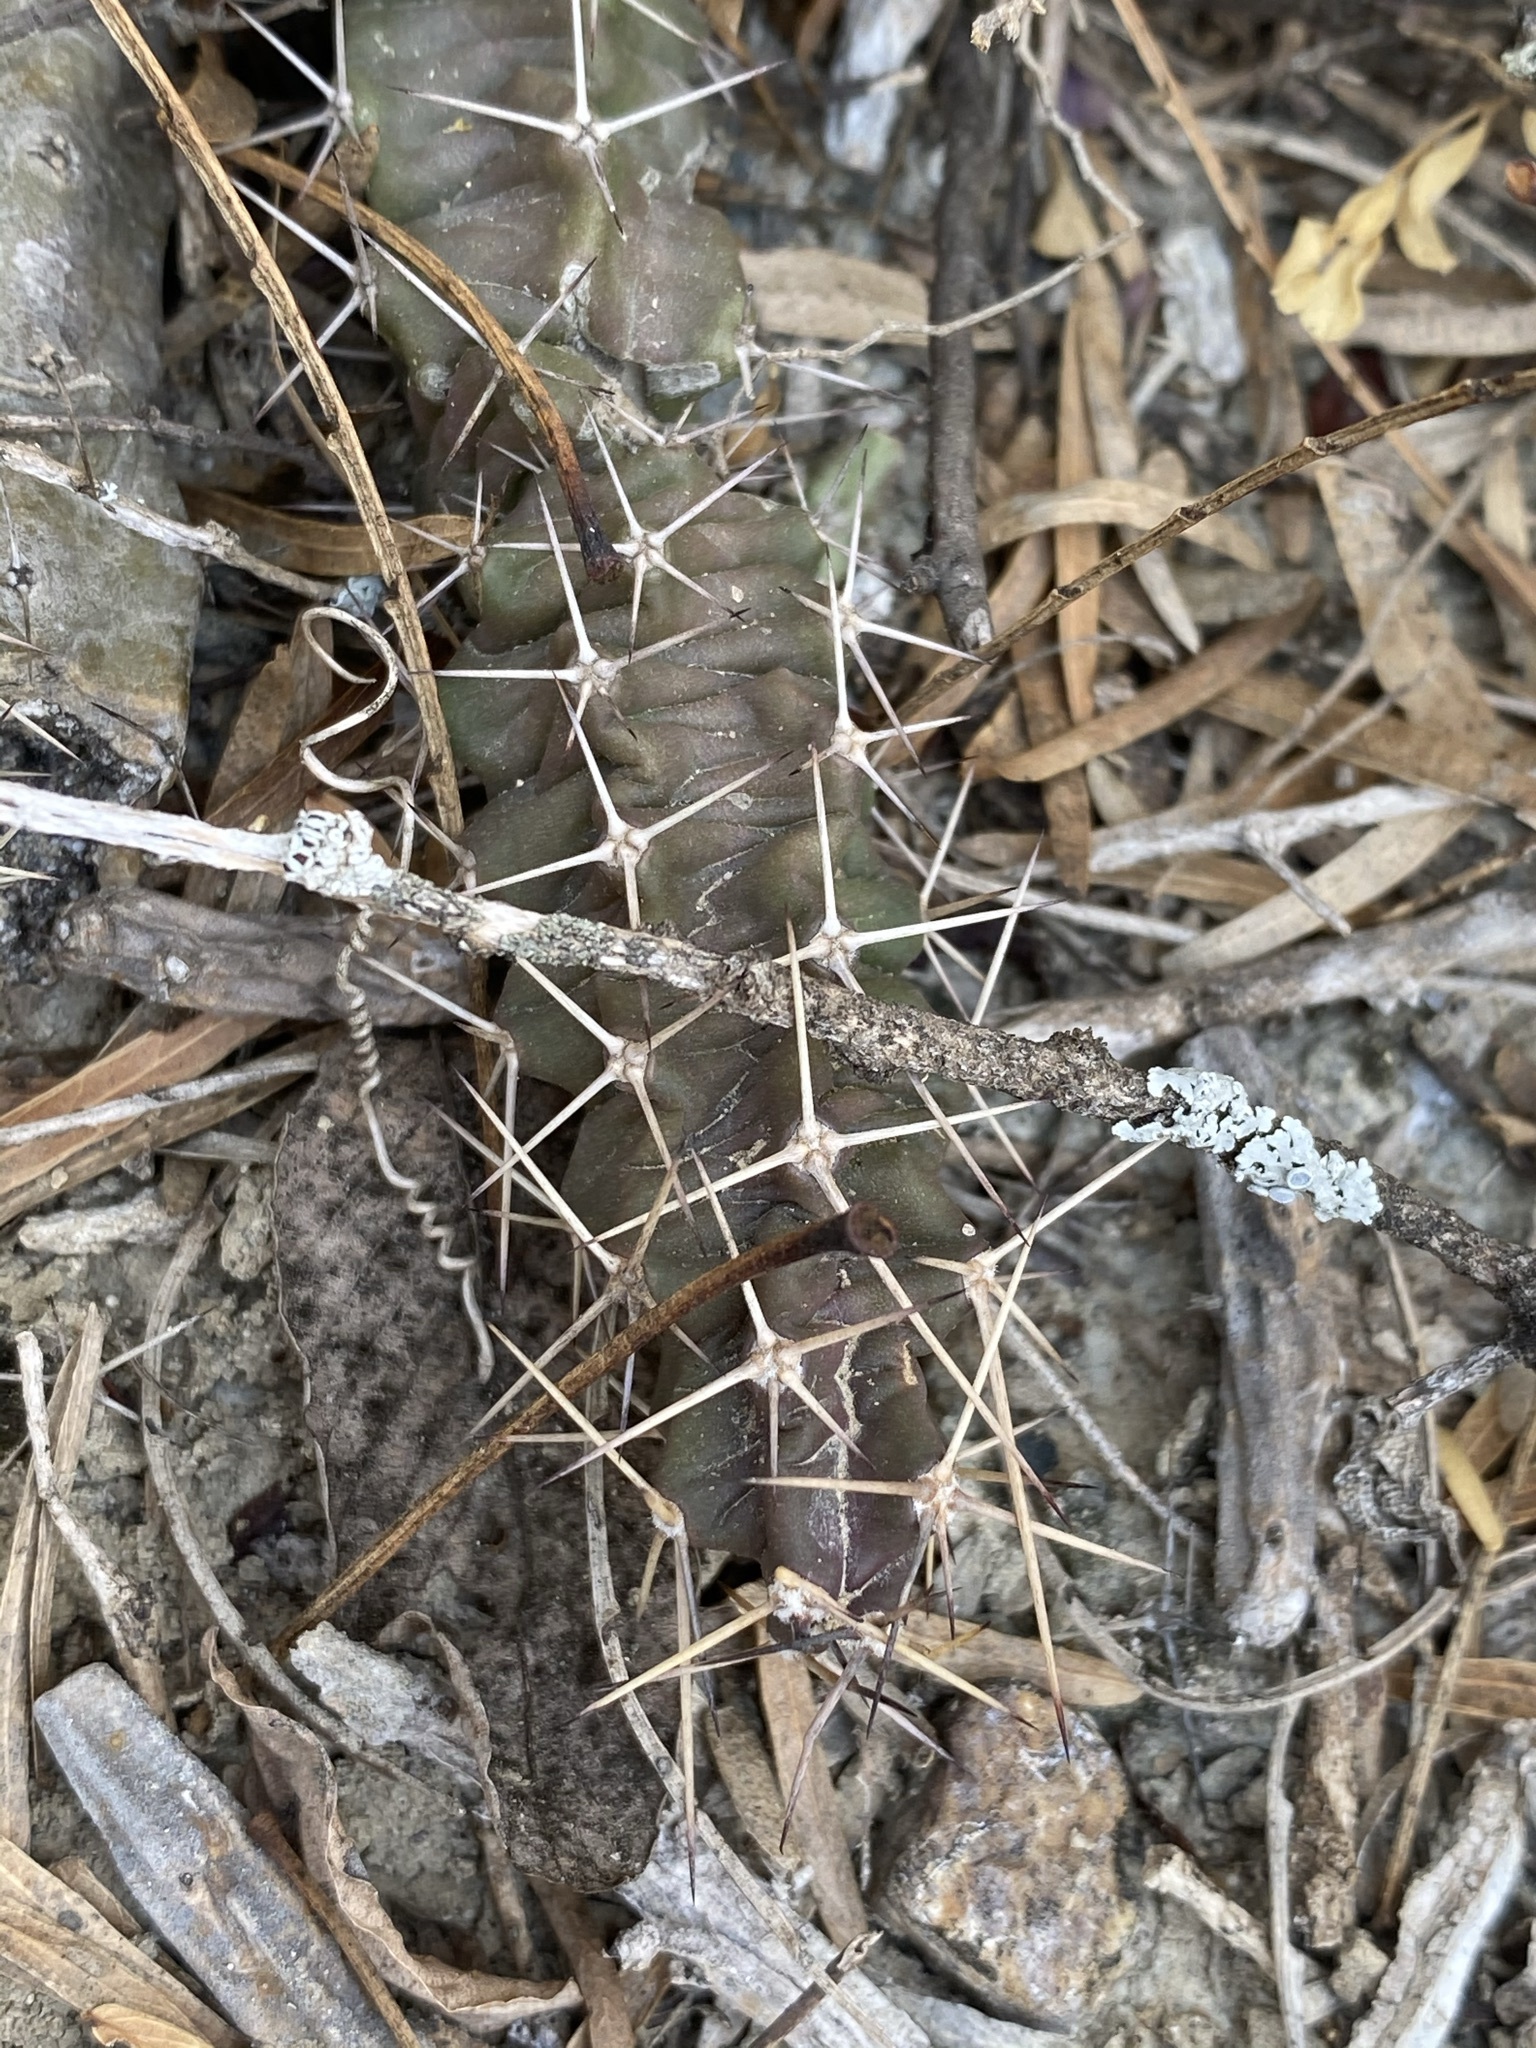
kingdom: Plantae
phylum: Tracheophyta
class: Magnoliopsida
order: Caryophyllales
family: Cactaceae
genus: Echinocereus
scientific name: Echinocereus pentalophus
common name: Ladyfinger cactus
